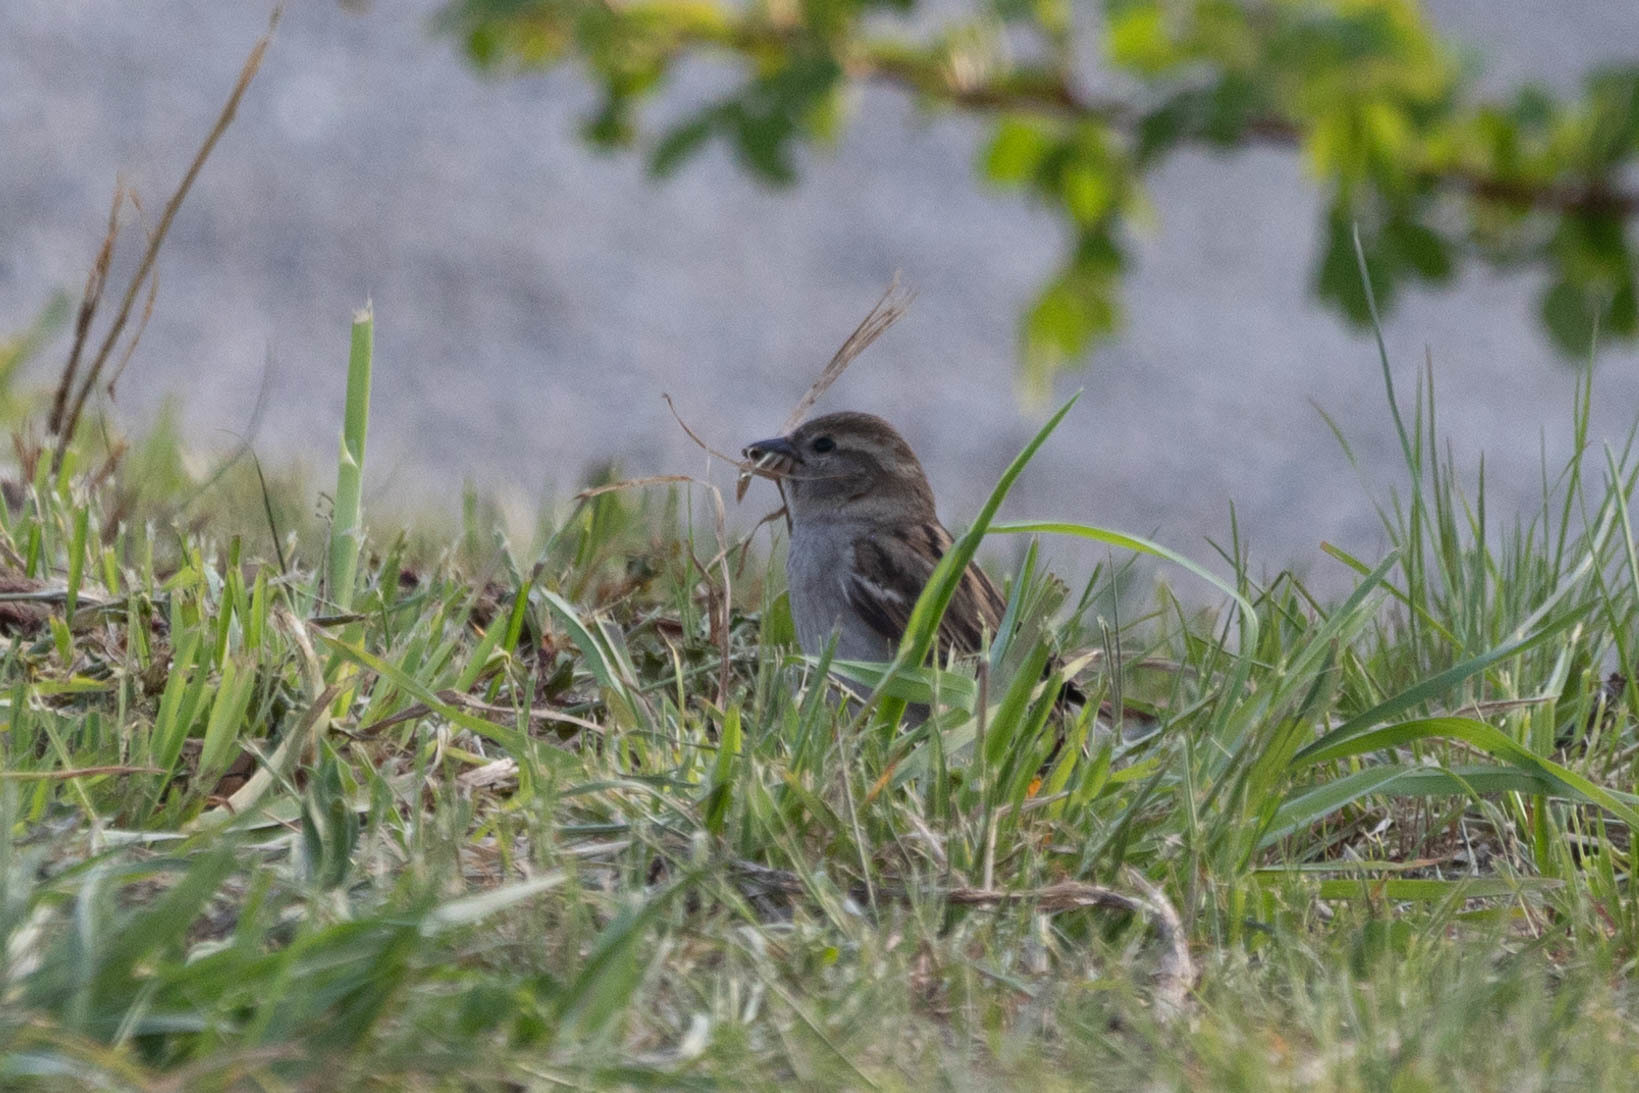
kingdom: Animalia
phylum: Chordata
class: Aves
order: Passeriformes
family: Passeridae
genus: Passer
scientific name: Passer domesticus
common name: House sparrow
